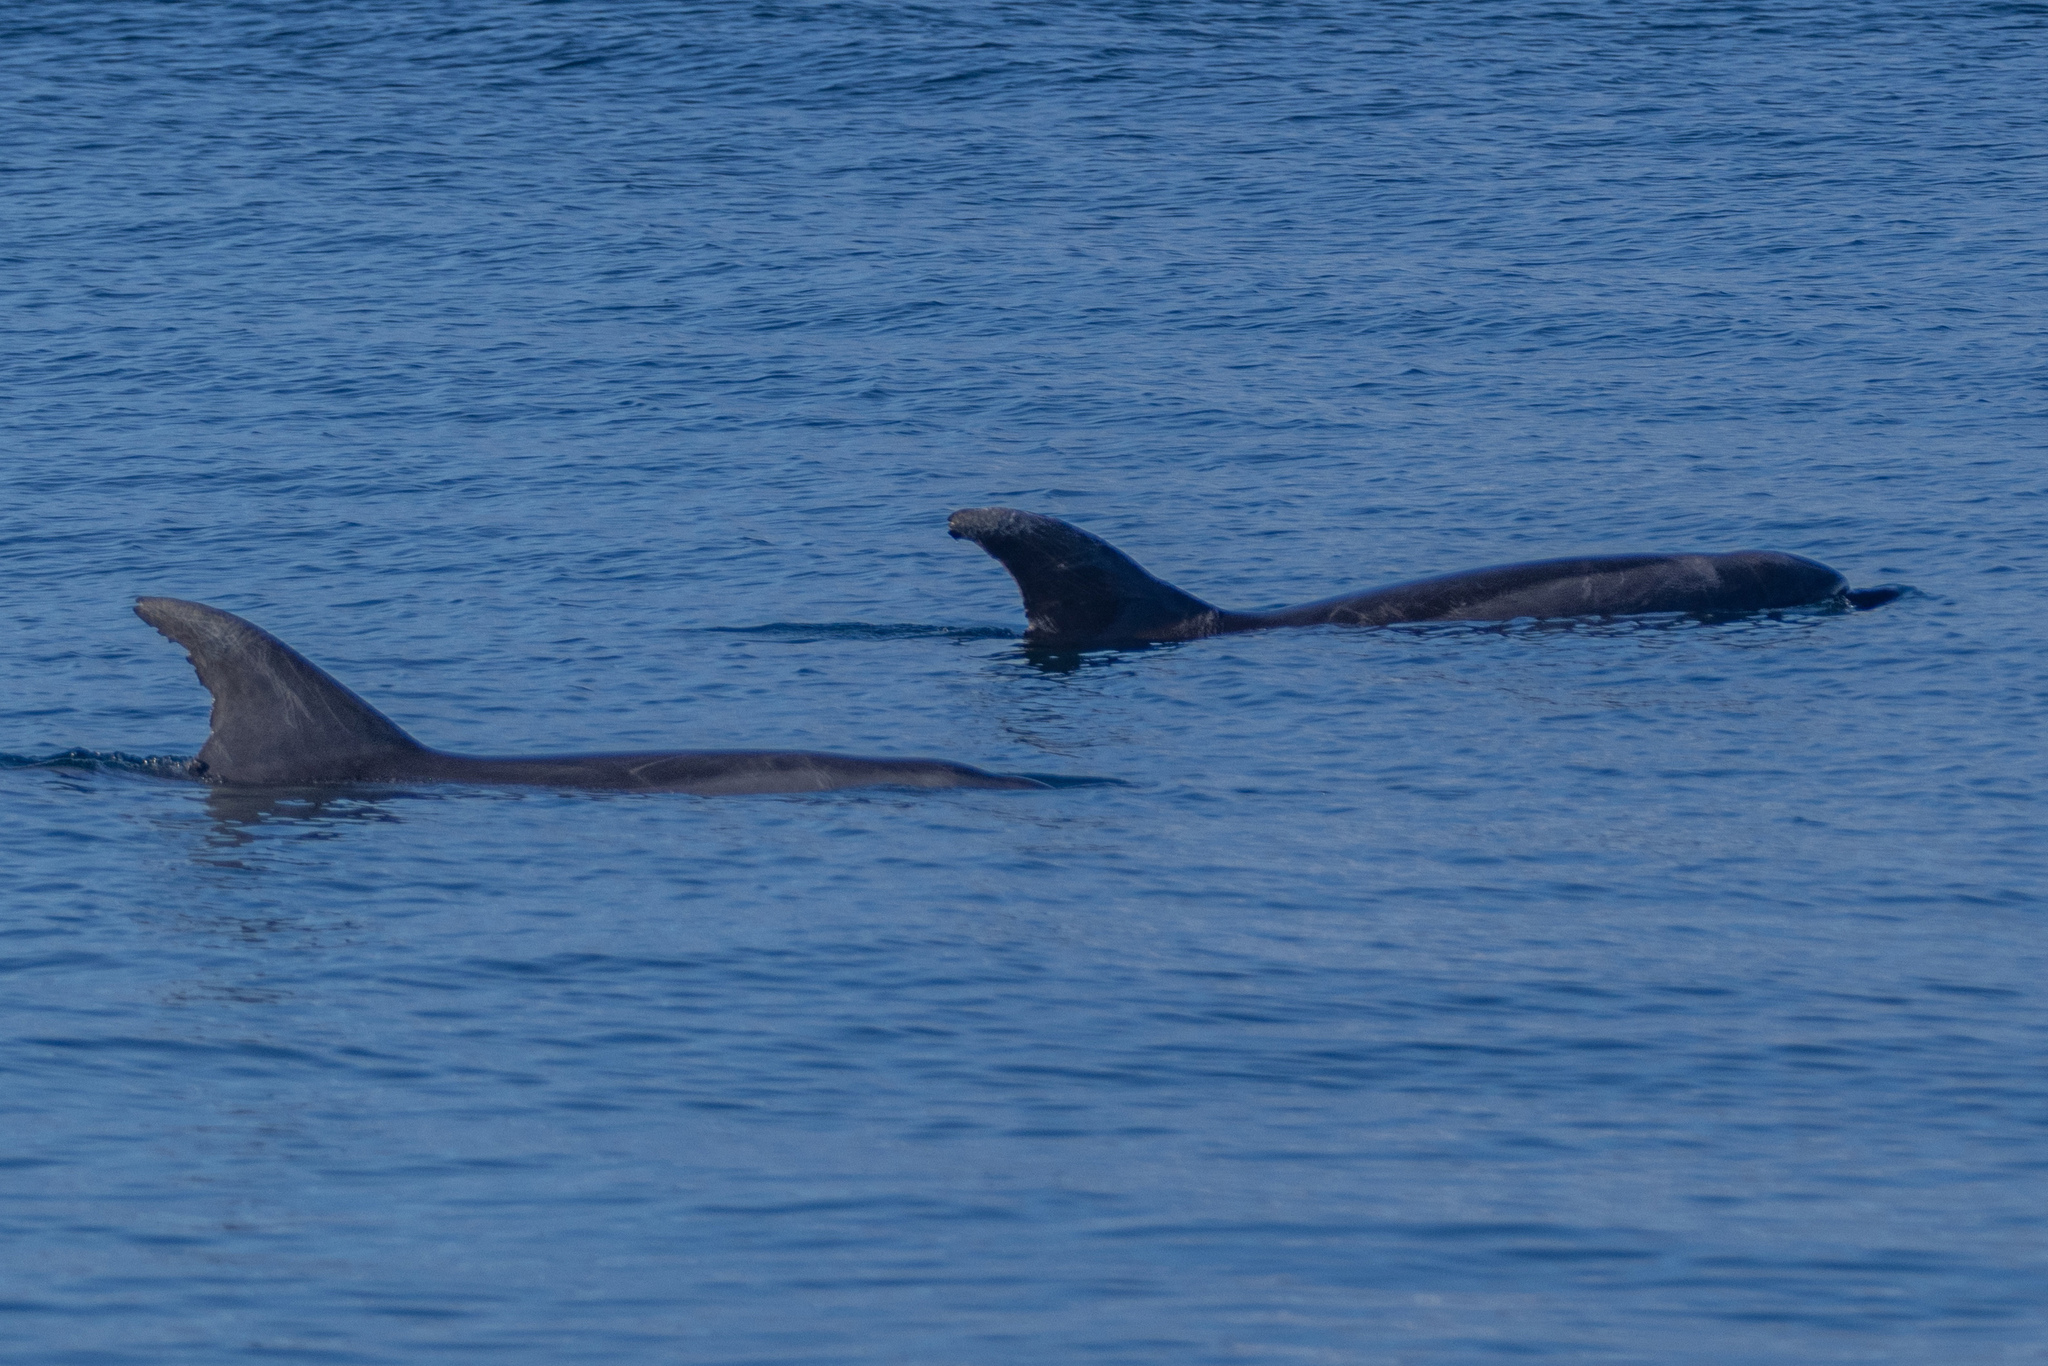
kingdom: Animalia
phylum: Chordata
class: Mammalia
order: Cetacea
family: Delphinidae
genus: Tursiops
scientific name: Tursiops truncatus
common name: Bottlenose dolphin
